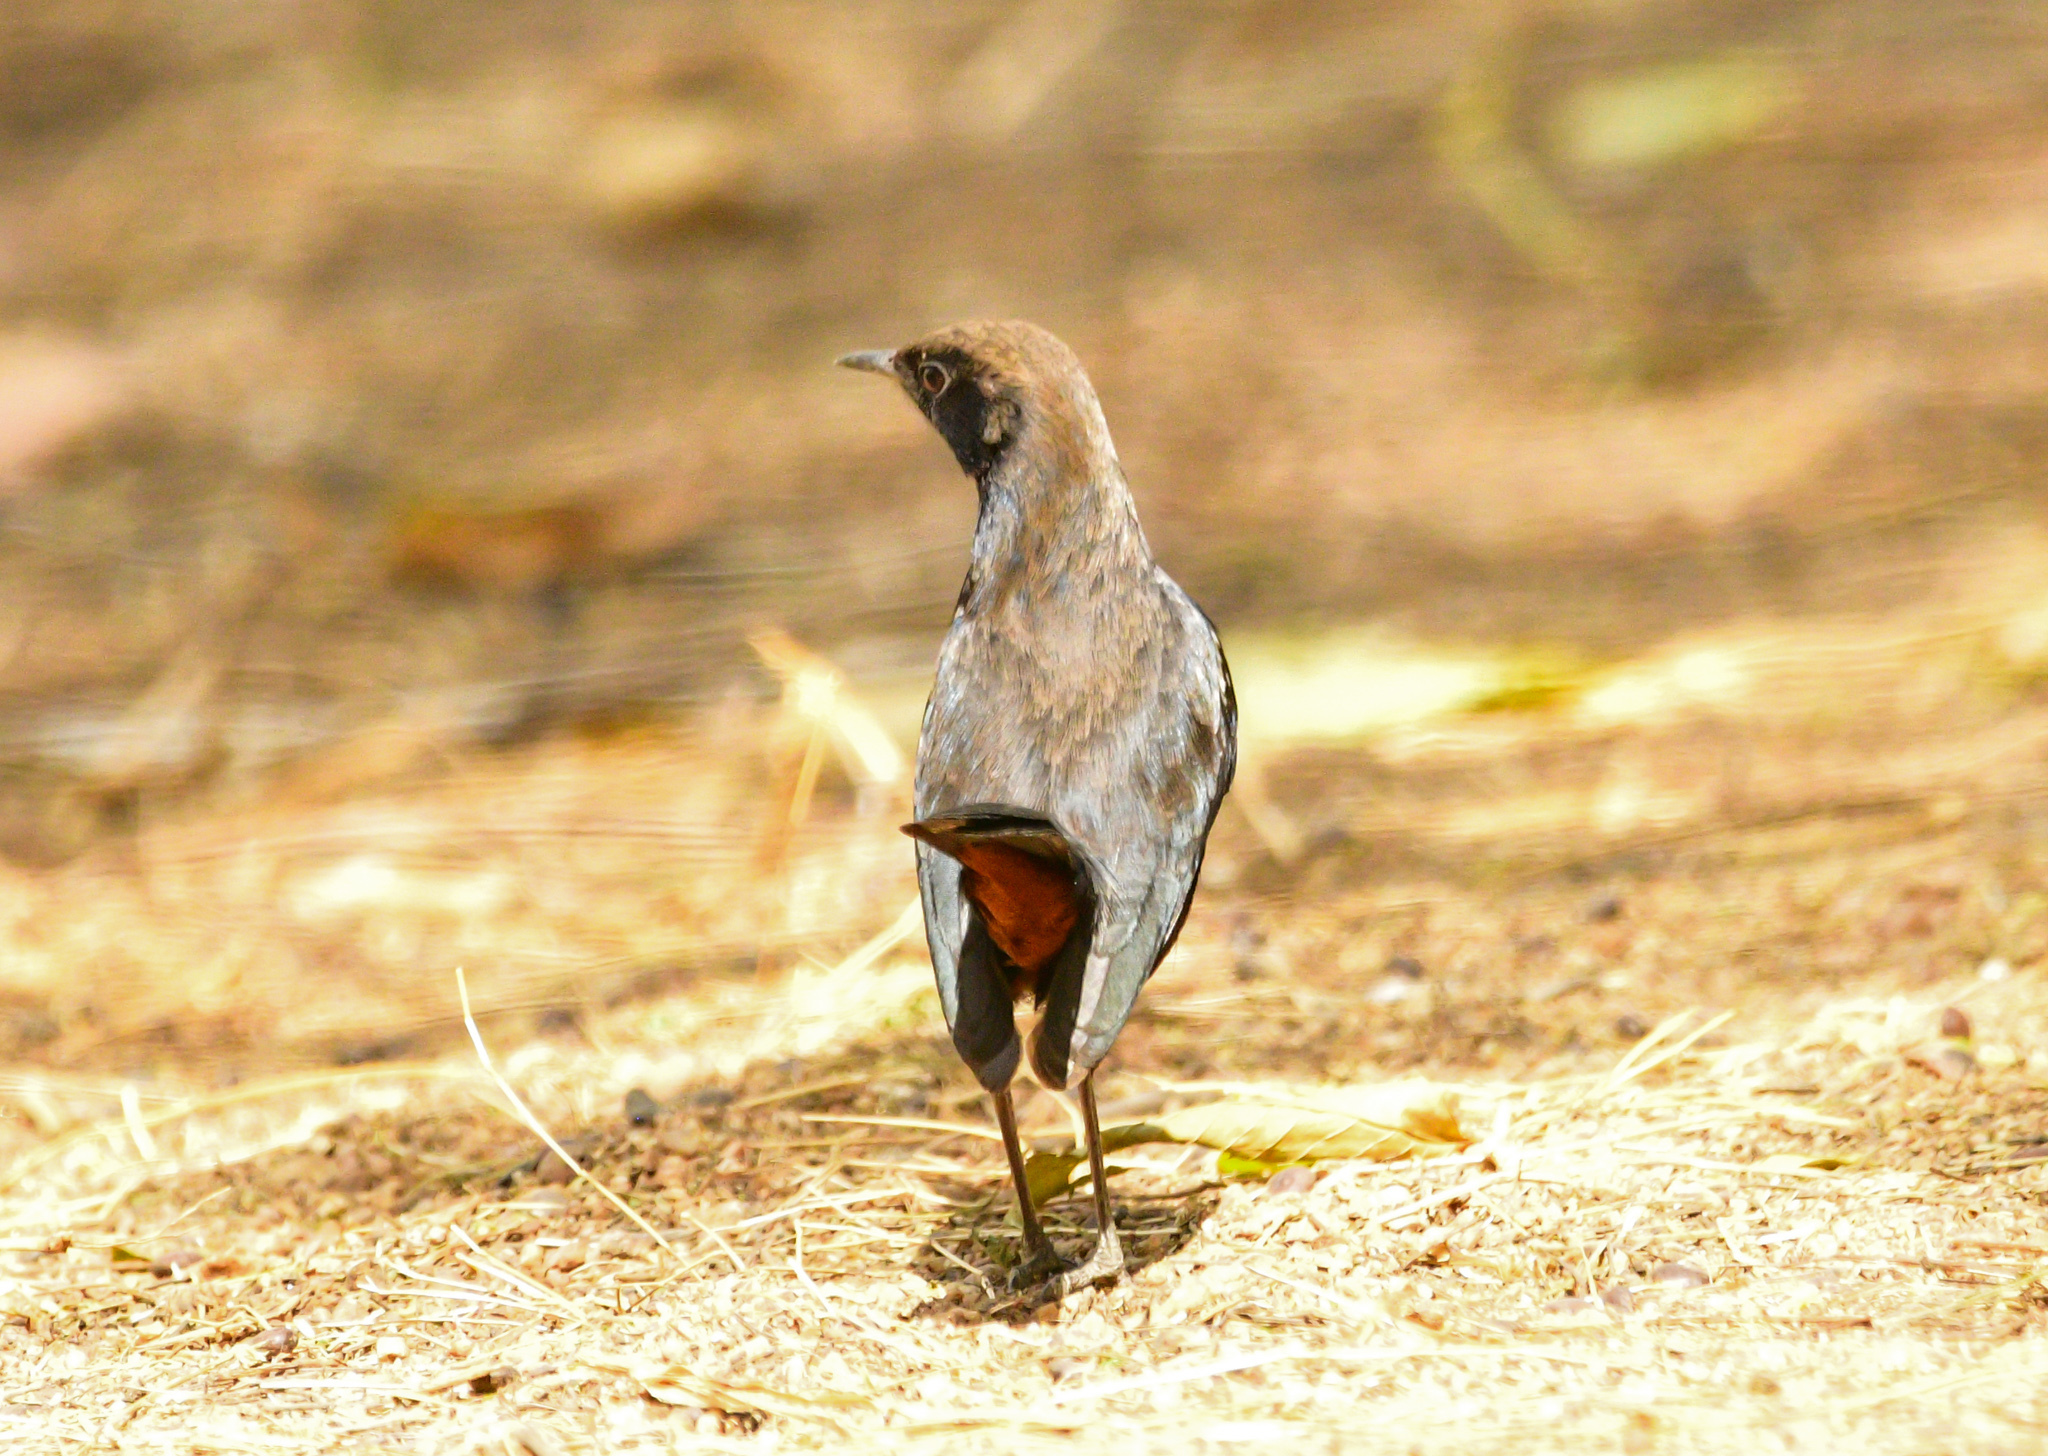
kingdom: Animalia
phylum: Chordata
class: Aves
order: Passeriformes
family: Muscicapidae
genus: Saxicoloides
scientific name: Saxicoloides fulicatus
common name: Indian robin
